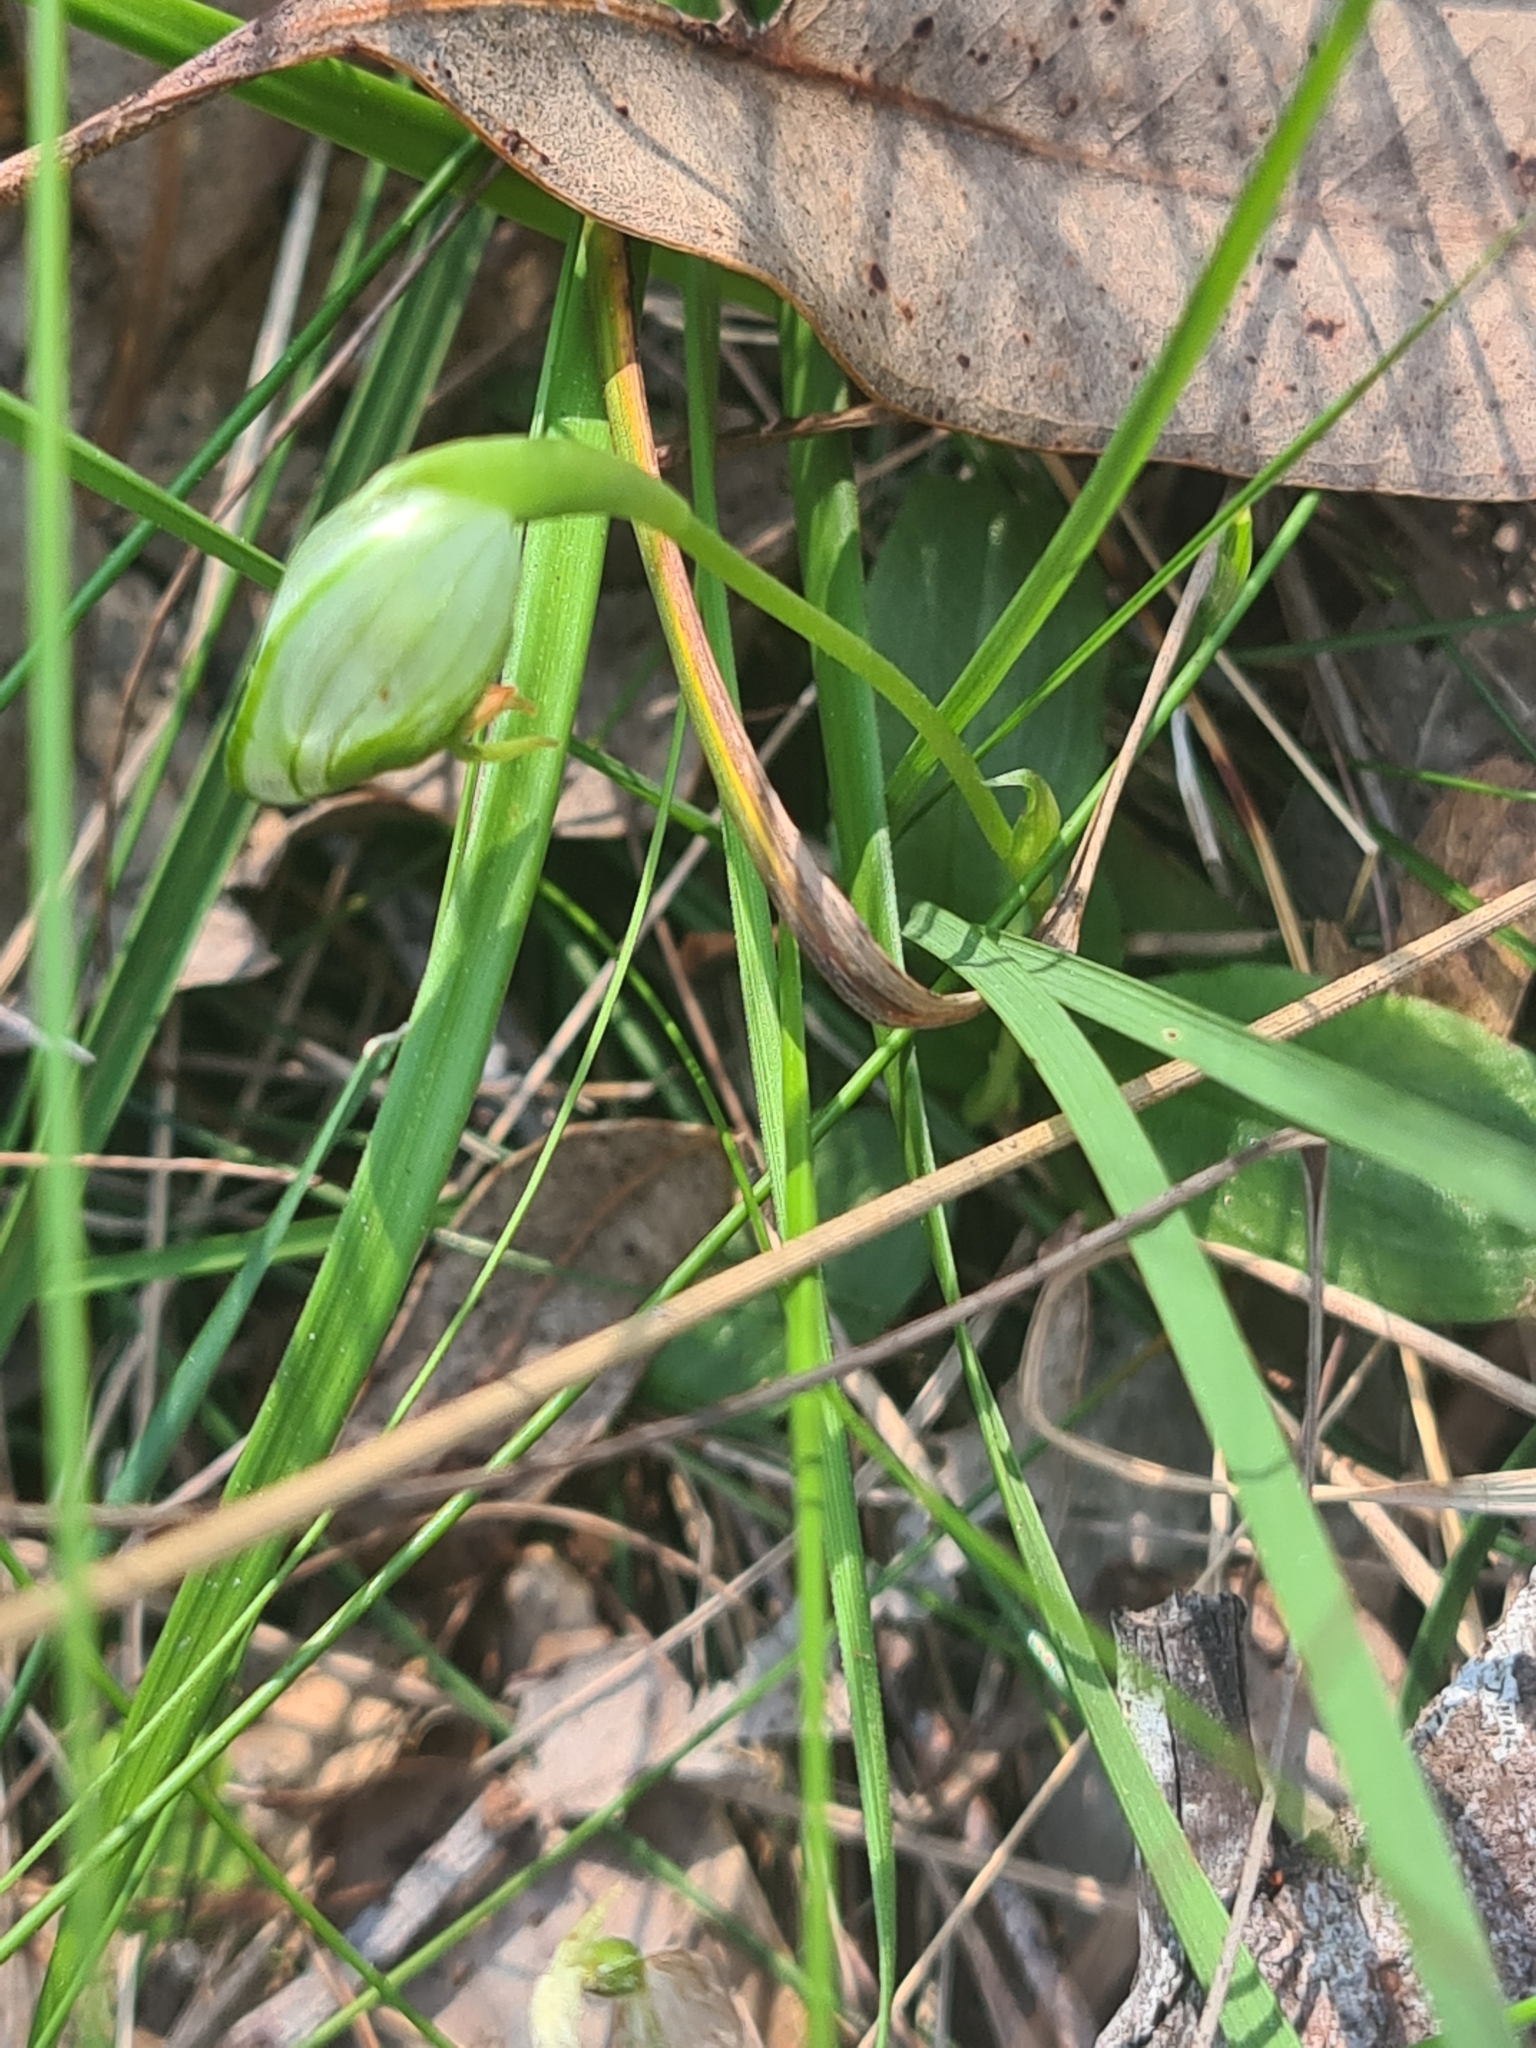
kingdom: Plantae
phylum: Tracheophyta
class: Liliopsida
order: Asparagales
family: Orchidaceae
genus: Pterostylis
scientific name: Pterostylis nutans
